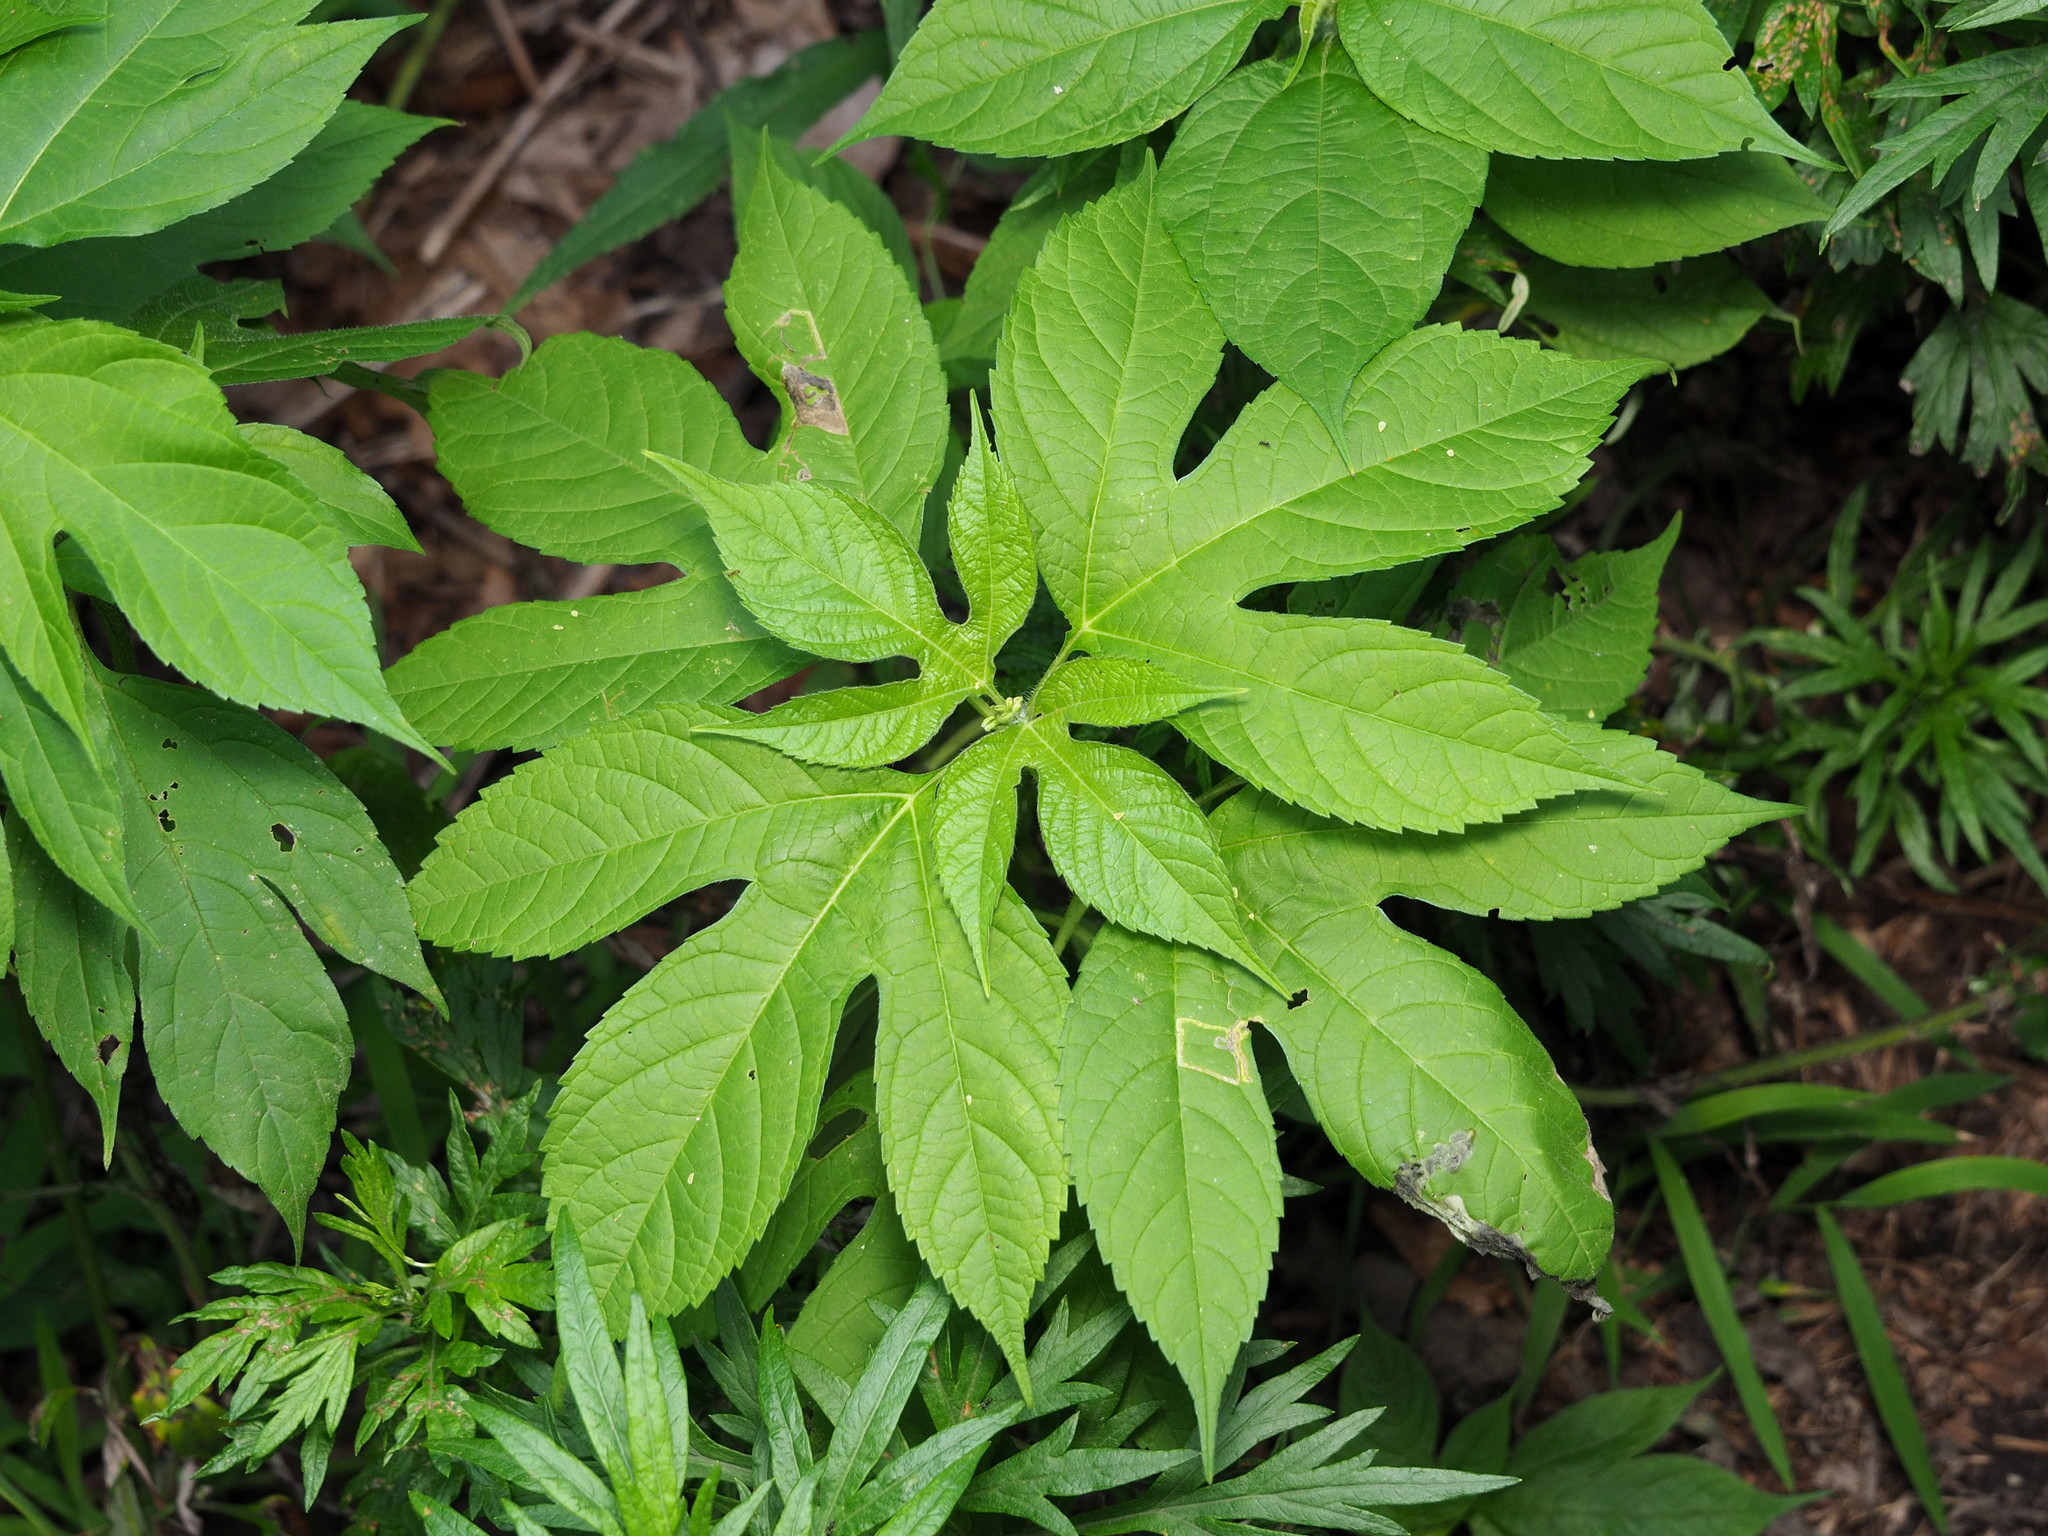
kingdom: Plantae
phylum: Tracheophyta
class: Magnoliopsida
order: Asterales
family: Asteraceae
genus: Ambrosia
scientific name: Ambrosia trifida
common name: Giant ragweed
